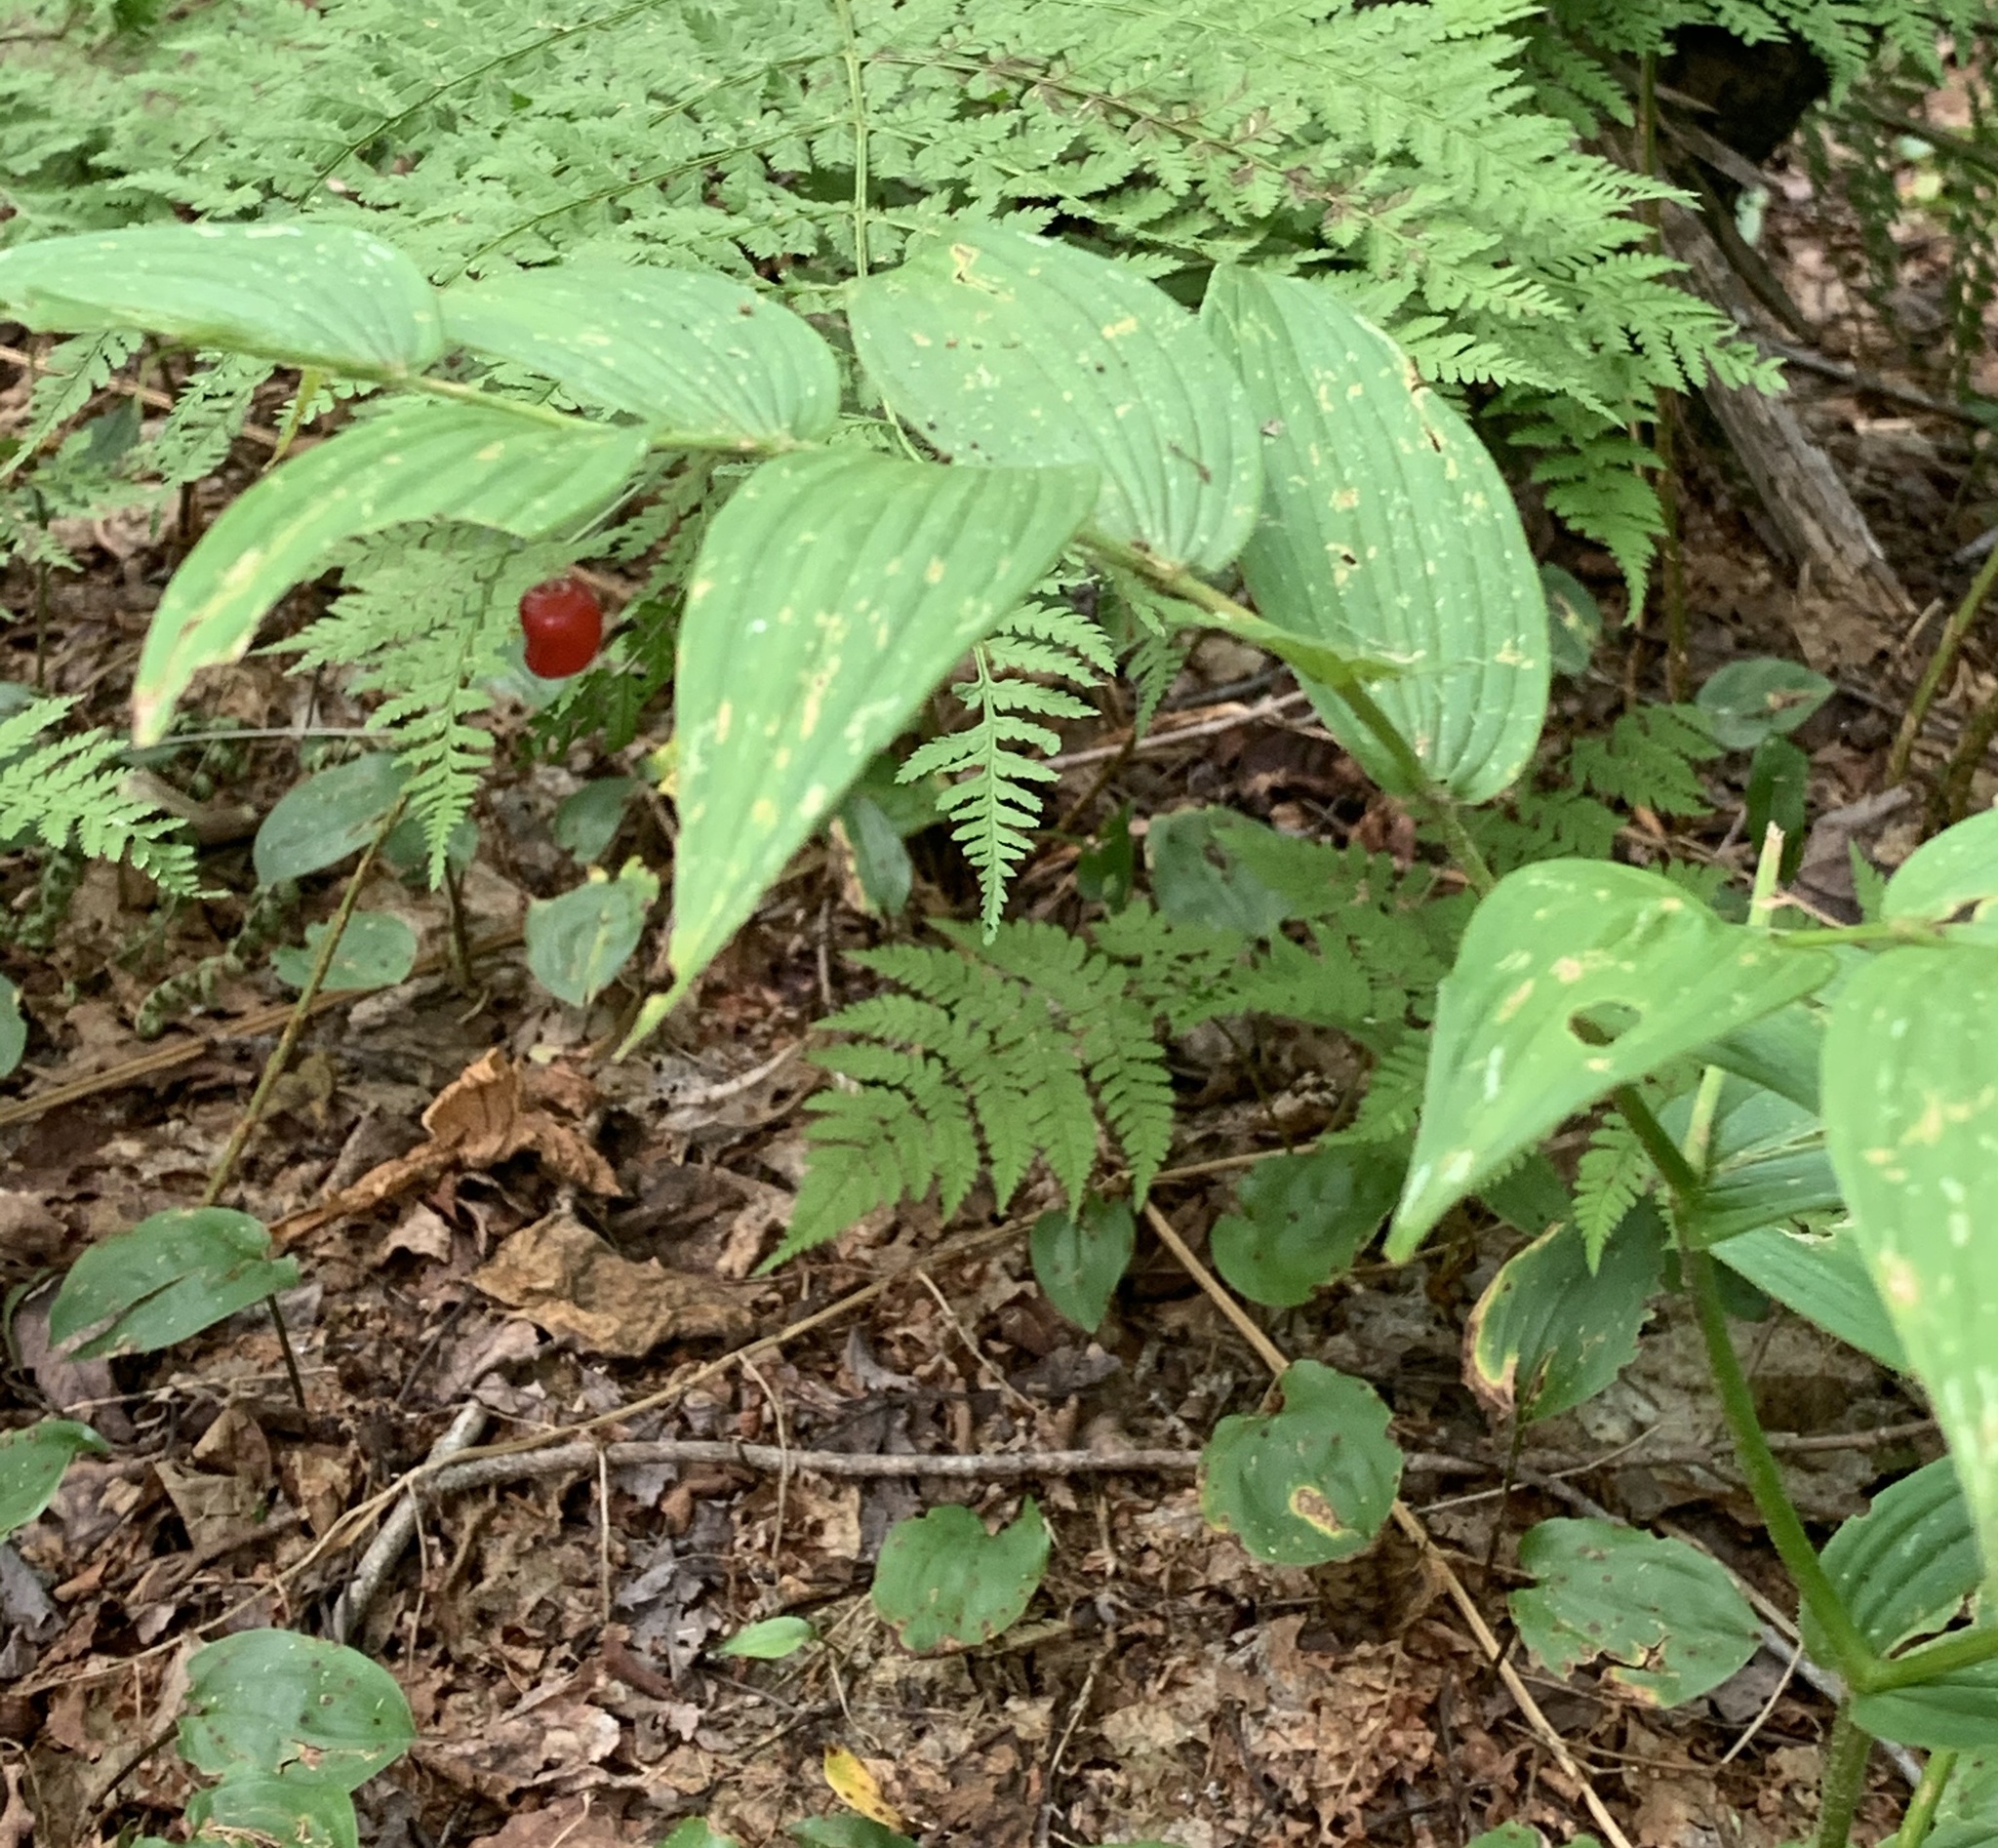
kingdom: Plantae
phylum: Tracheophyta
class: Liliopsida
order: Liliales
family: Liliaceae
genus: Streptopus
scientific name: Streptopus lanceolatus
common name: Rose mandarin
